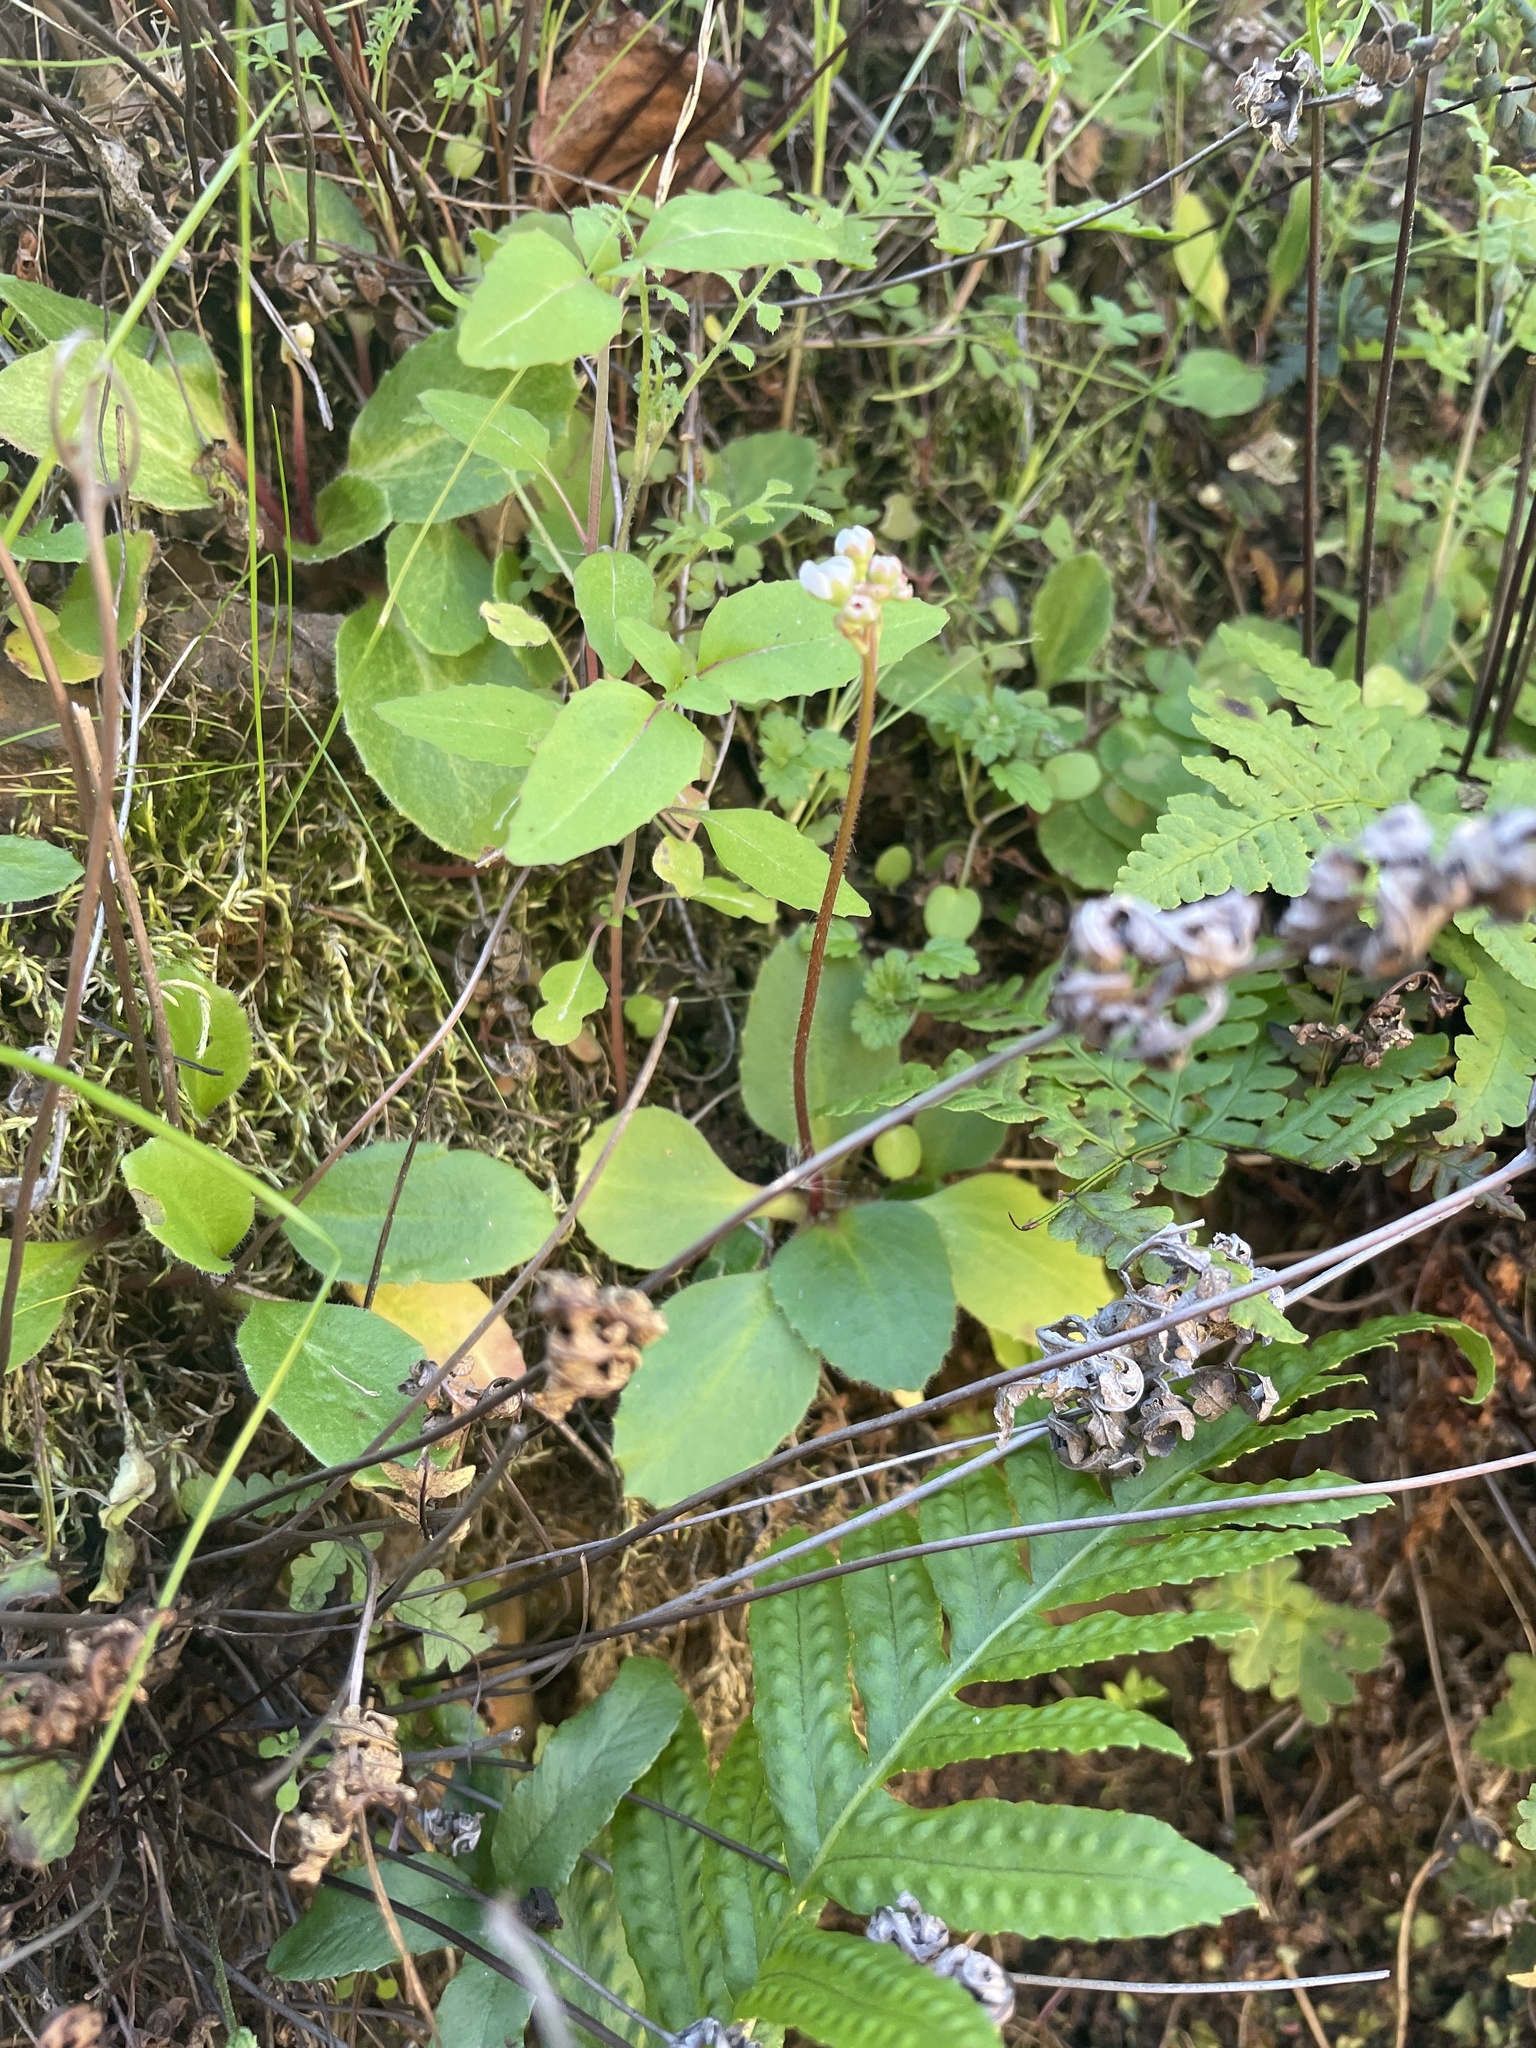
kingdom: Plantae
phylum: Tracheophyta
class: Magnoliopsida
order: Saxifragales
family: Saxifragaceae
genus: Micranthes
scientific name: Micranthes californica
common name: California saxifrage
